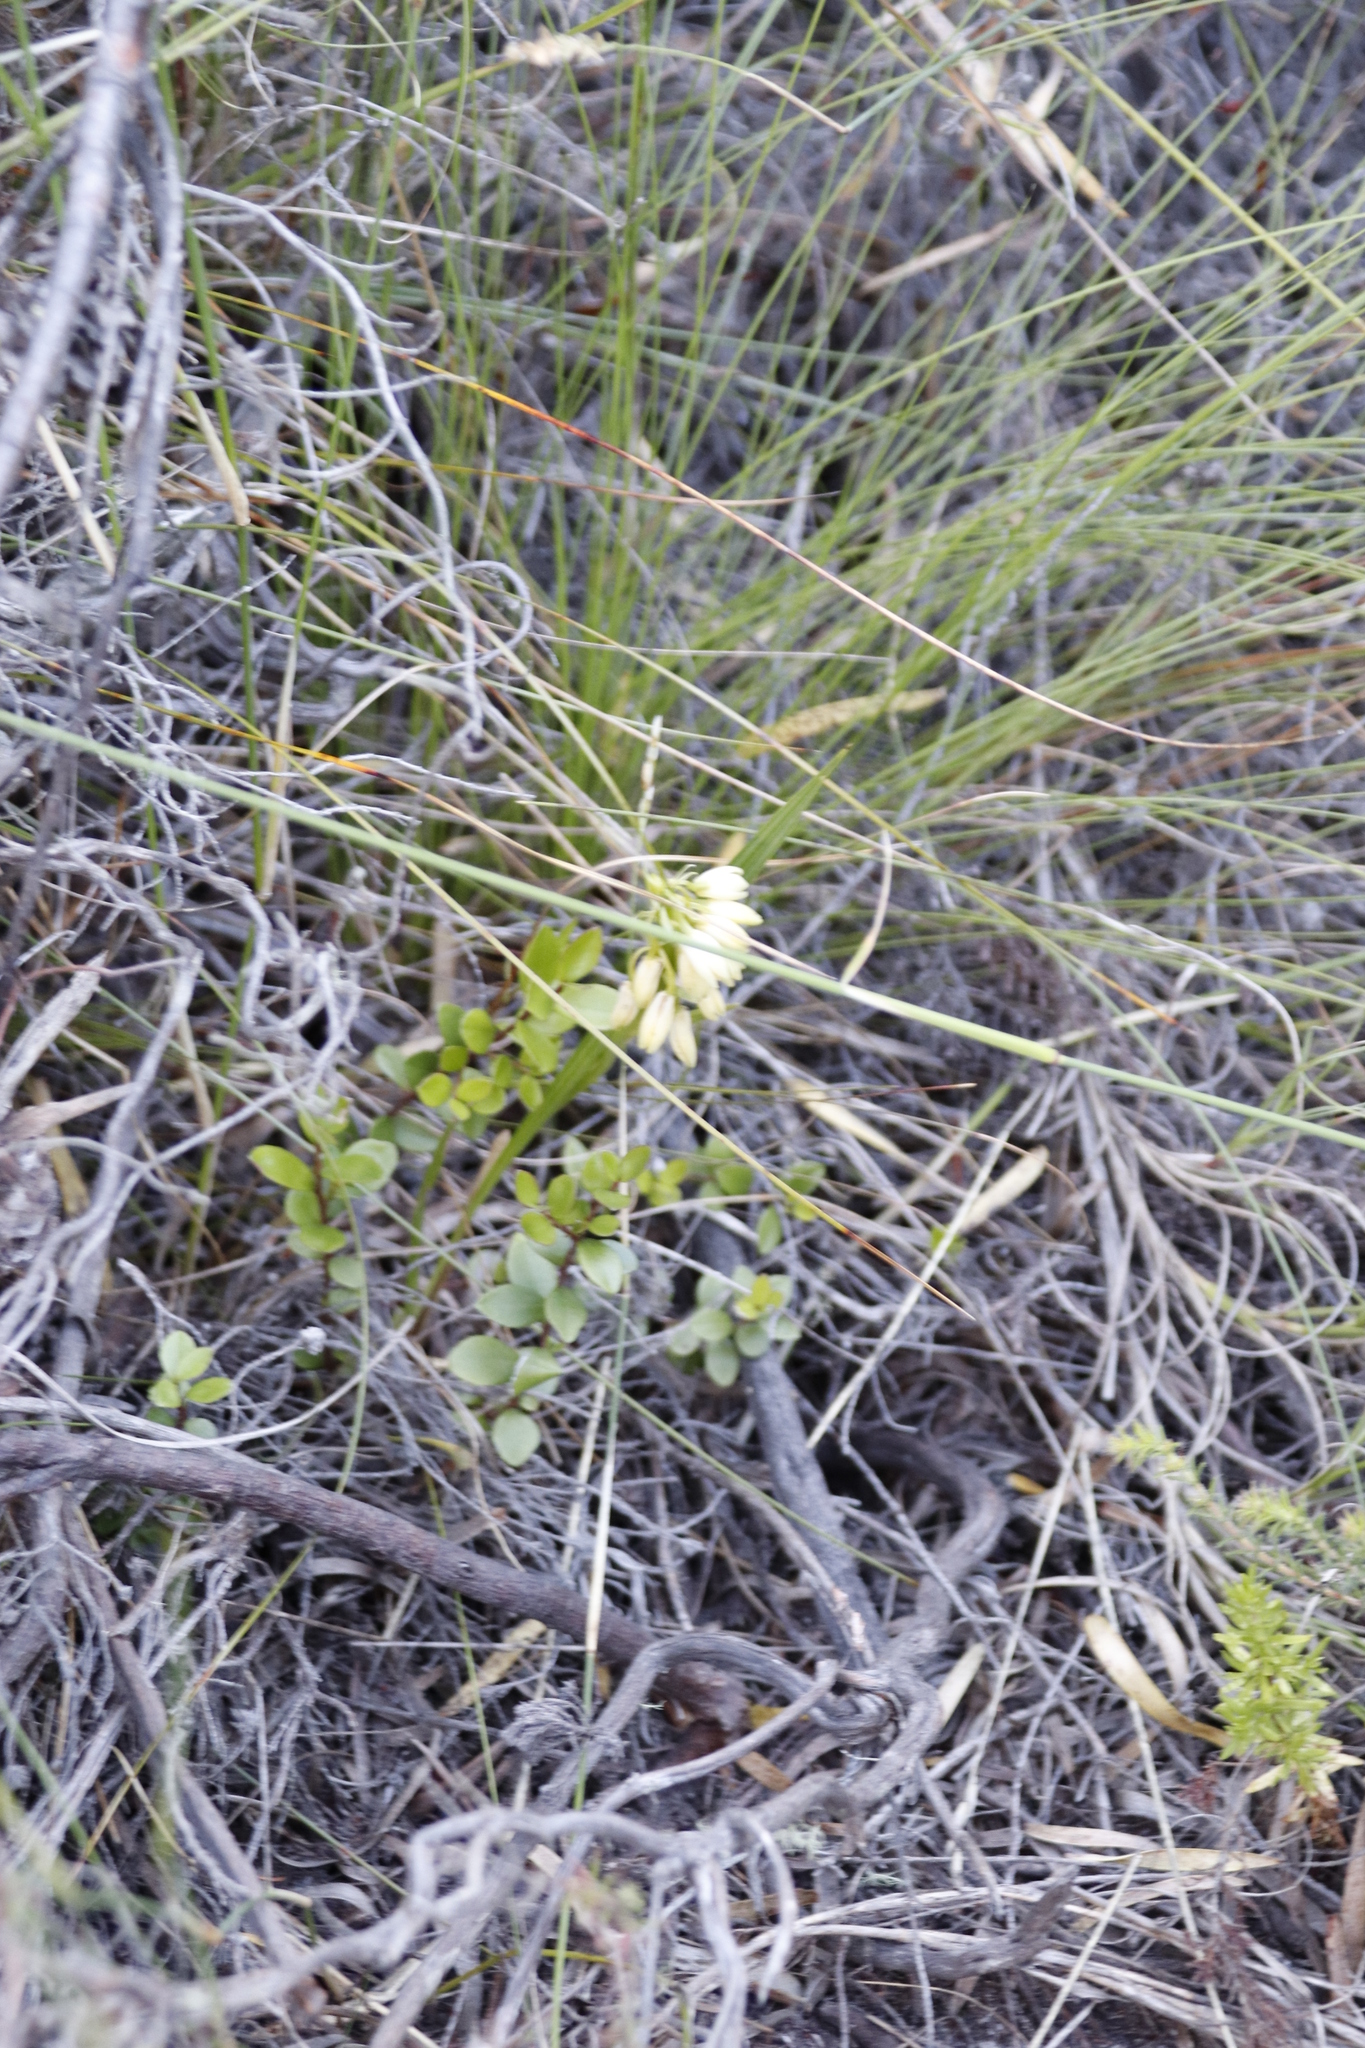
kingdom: Plantae
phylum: Tracheophyta
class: Liliopsida
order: Asparagales
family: Orchidaceae
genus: Eulophia
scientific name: Eulophia aculeata
